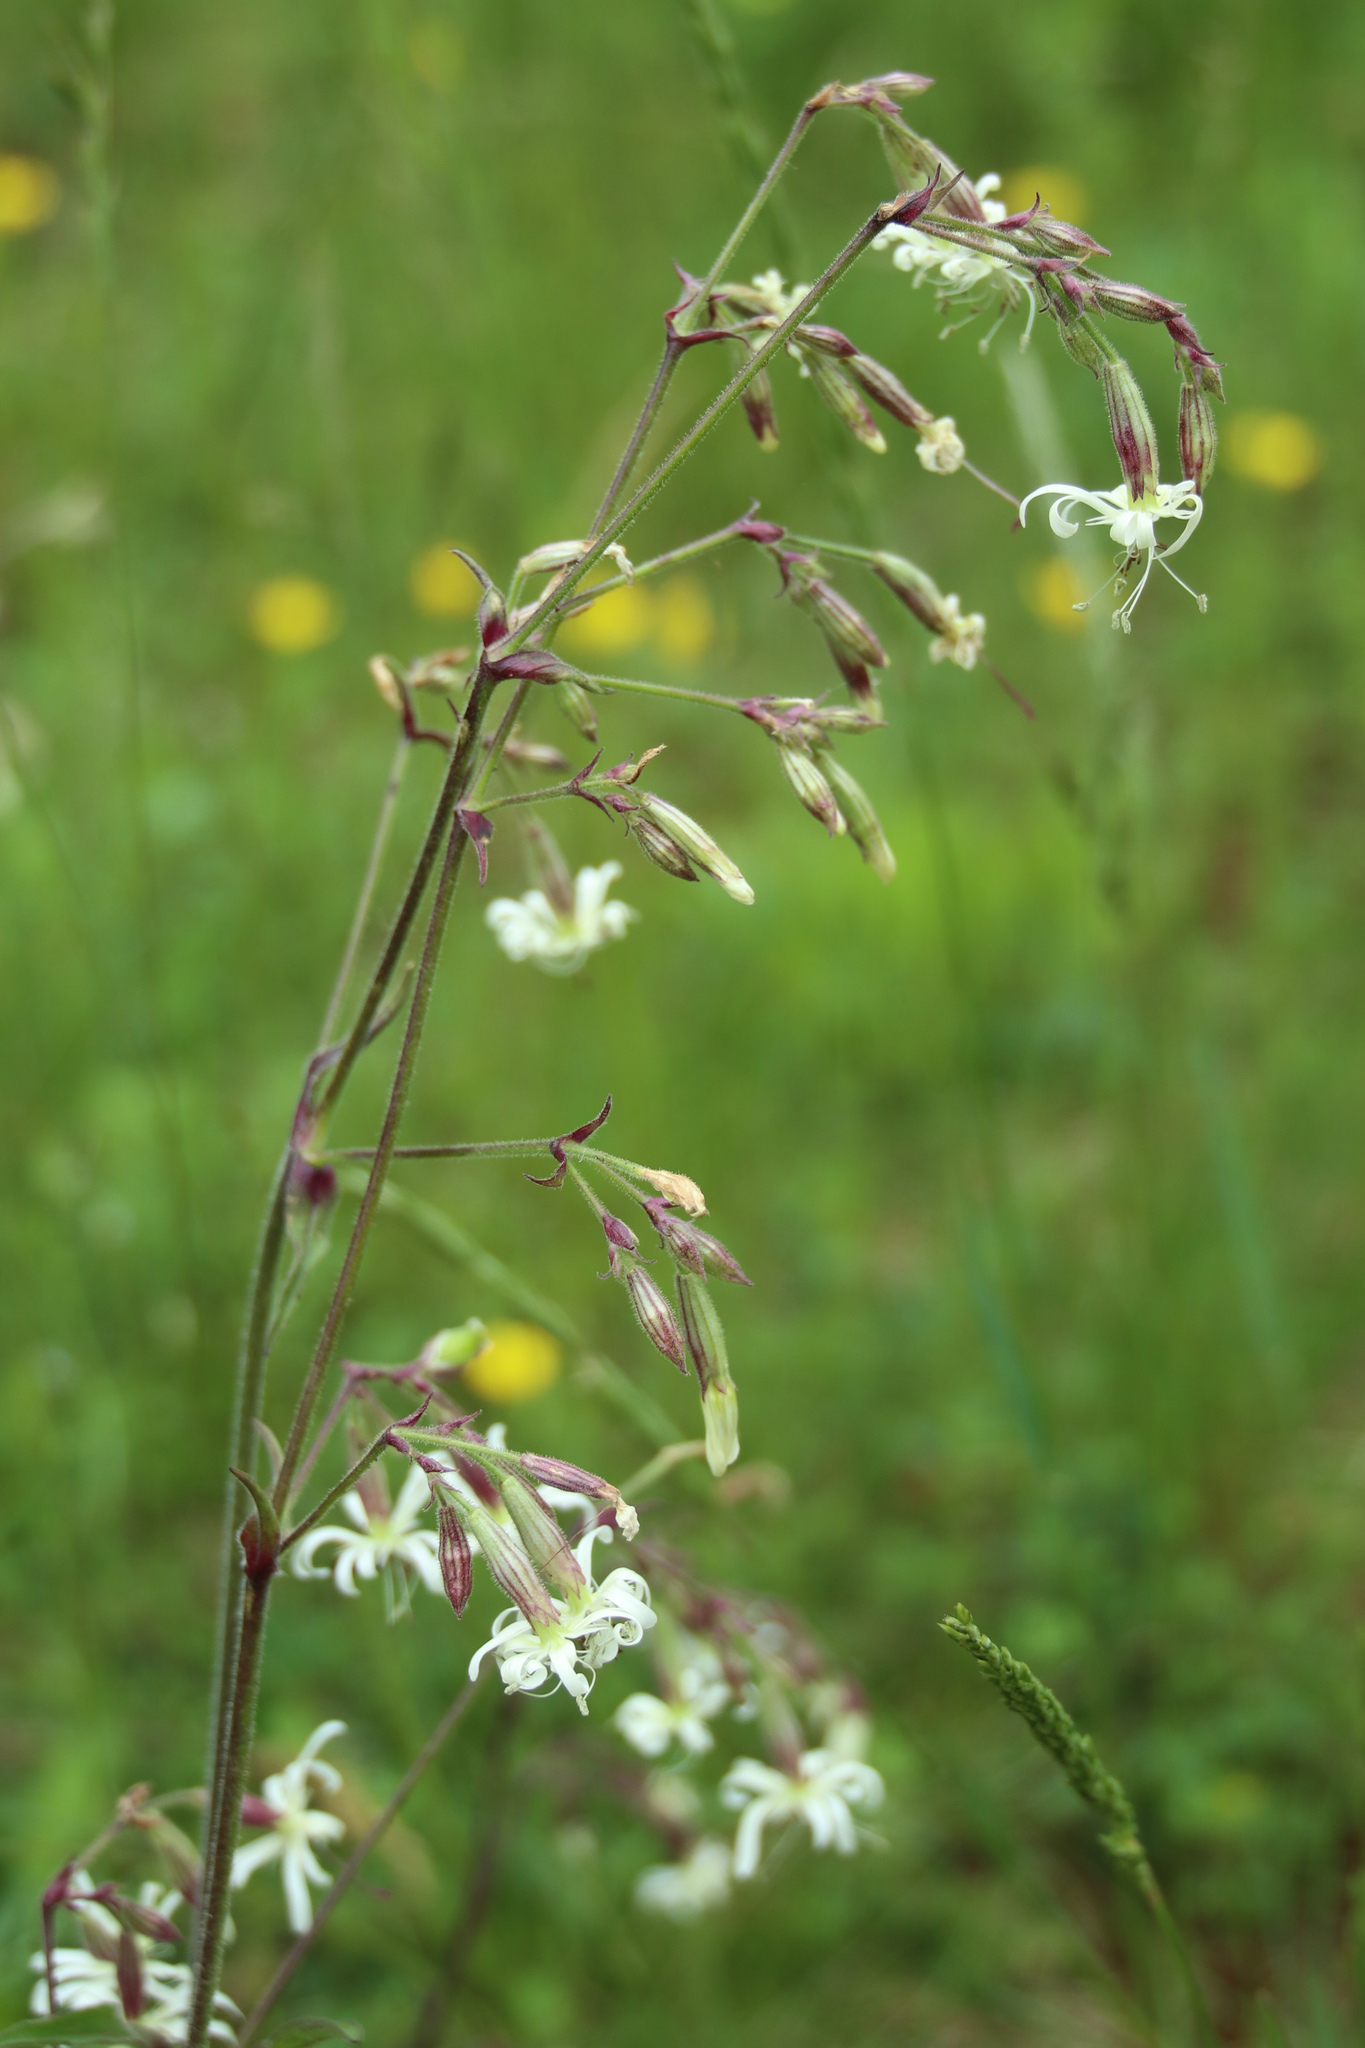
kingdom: Plantae
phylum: Tracheophyta
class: Magnoliopsida
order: Caryophyllales
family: Caryophyllaceae
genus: Silene
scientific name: Silene nutans
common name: Nottingham catchfly
